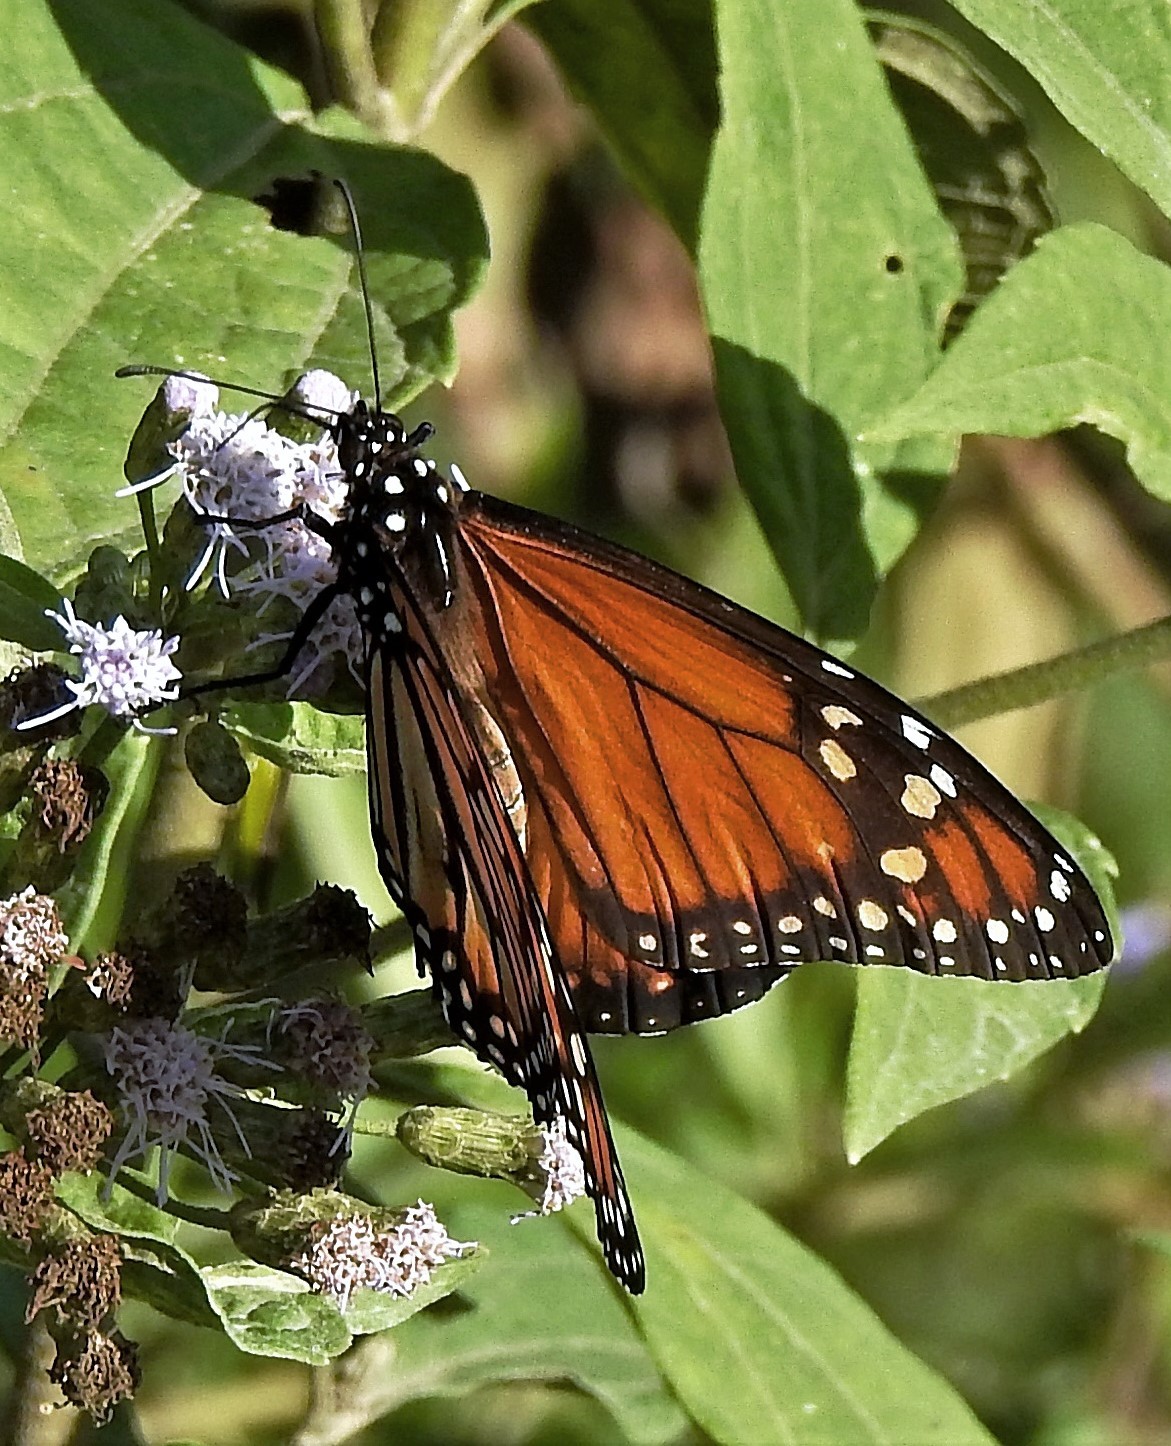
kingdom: Animalia
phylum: Arthropoda
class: Insecta
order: Lepidoptera
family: Nymphalidae
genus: Danaus
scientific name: Danaus erippus
